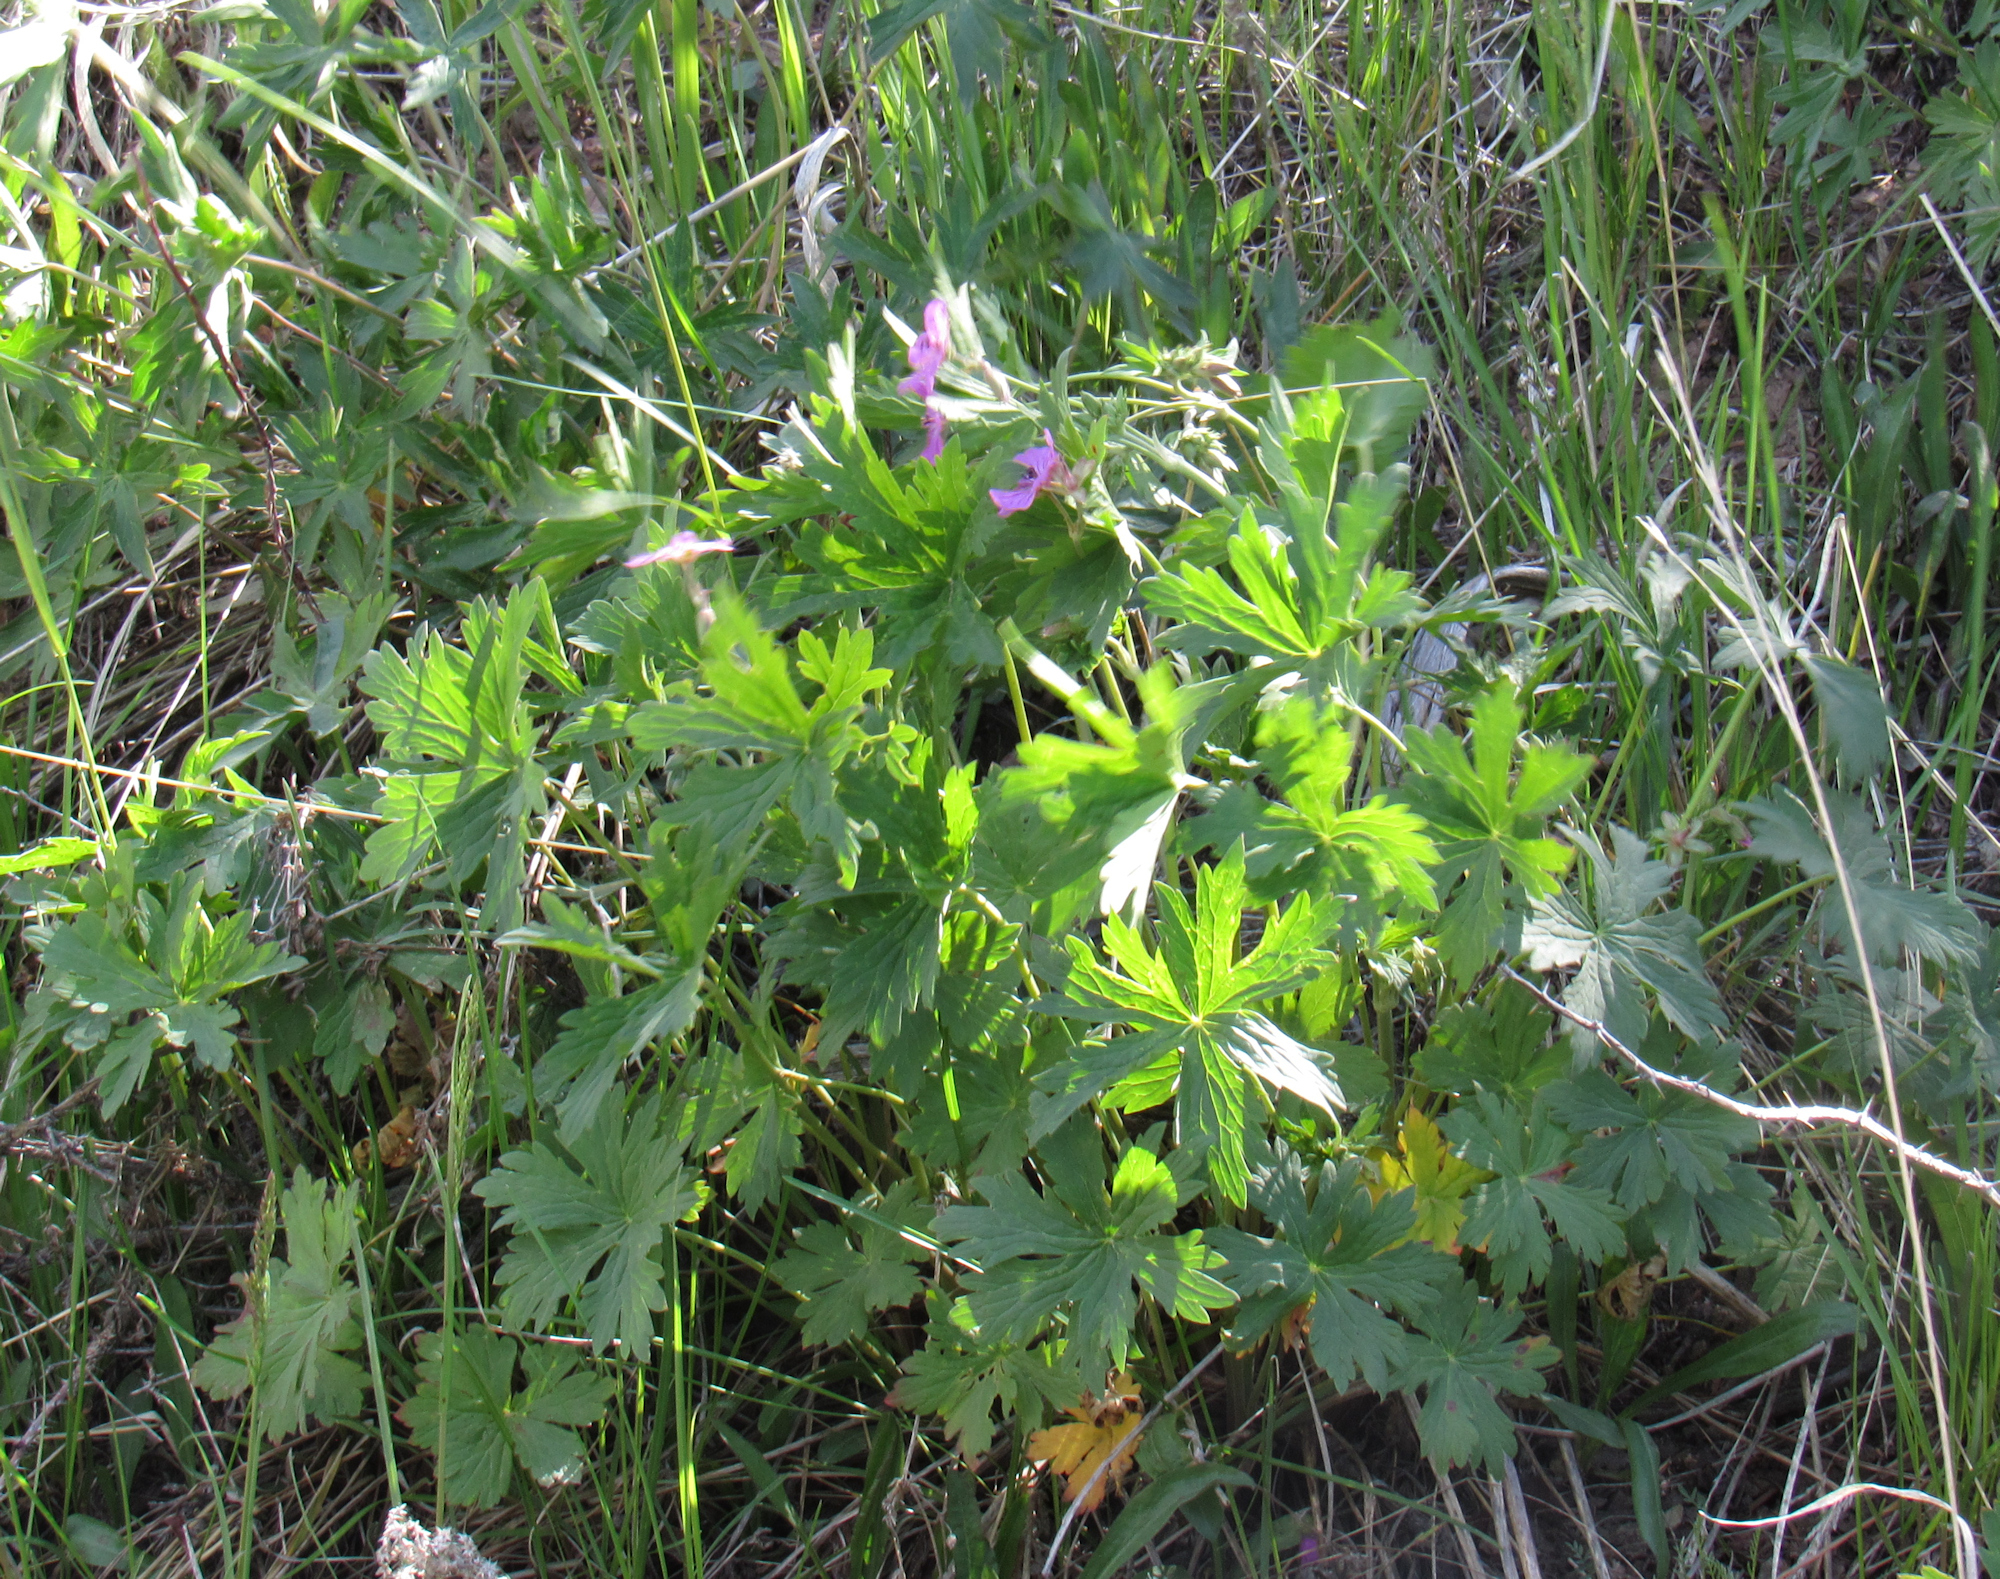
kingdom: Plantae
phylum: Tracheophyta
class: Magnoliopsida
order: Geraniales
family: Geraniaceae
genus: Geranium
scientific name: Geranium viscosissimum
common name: Purple geranium
